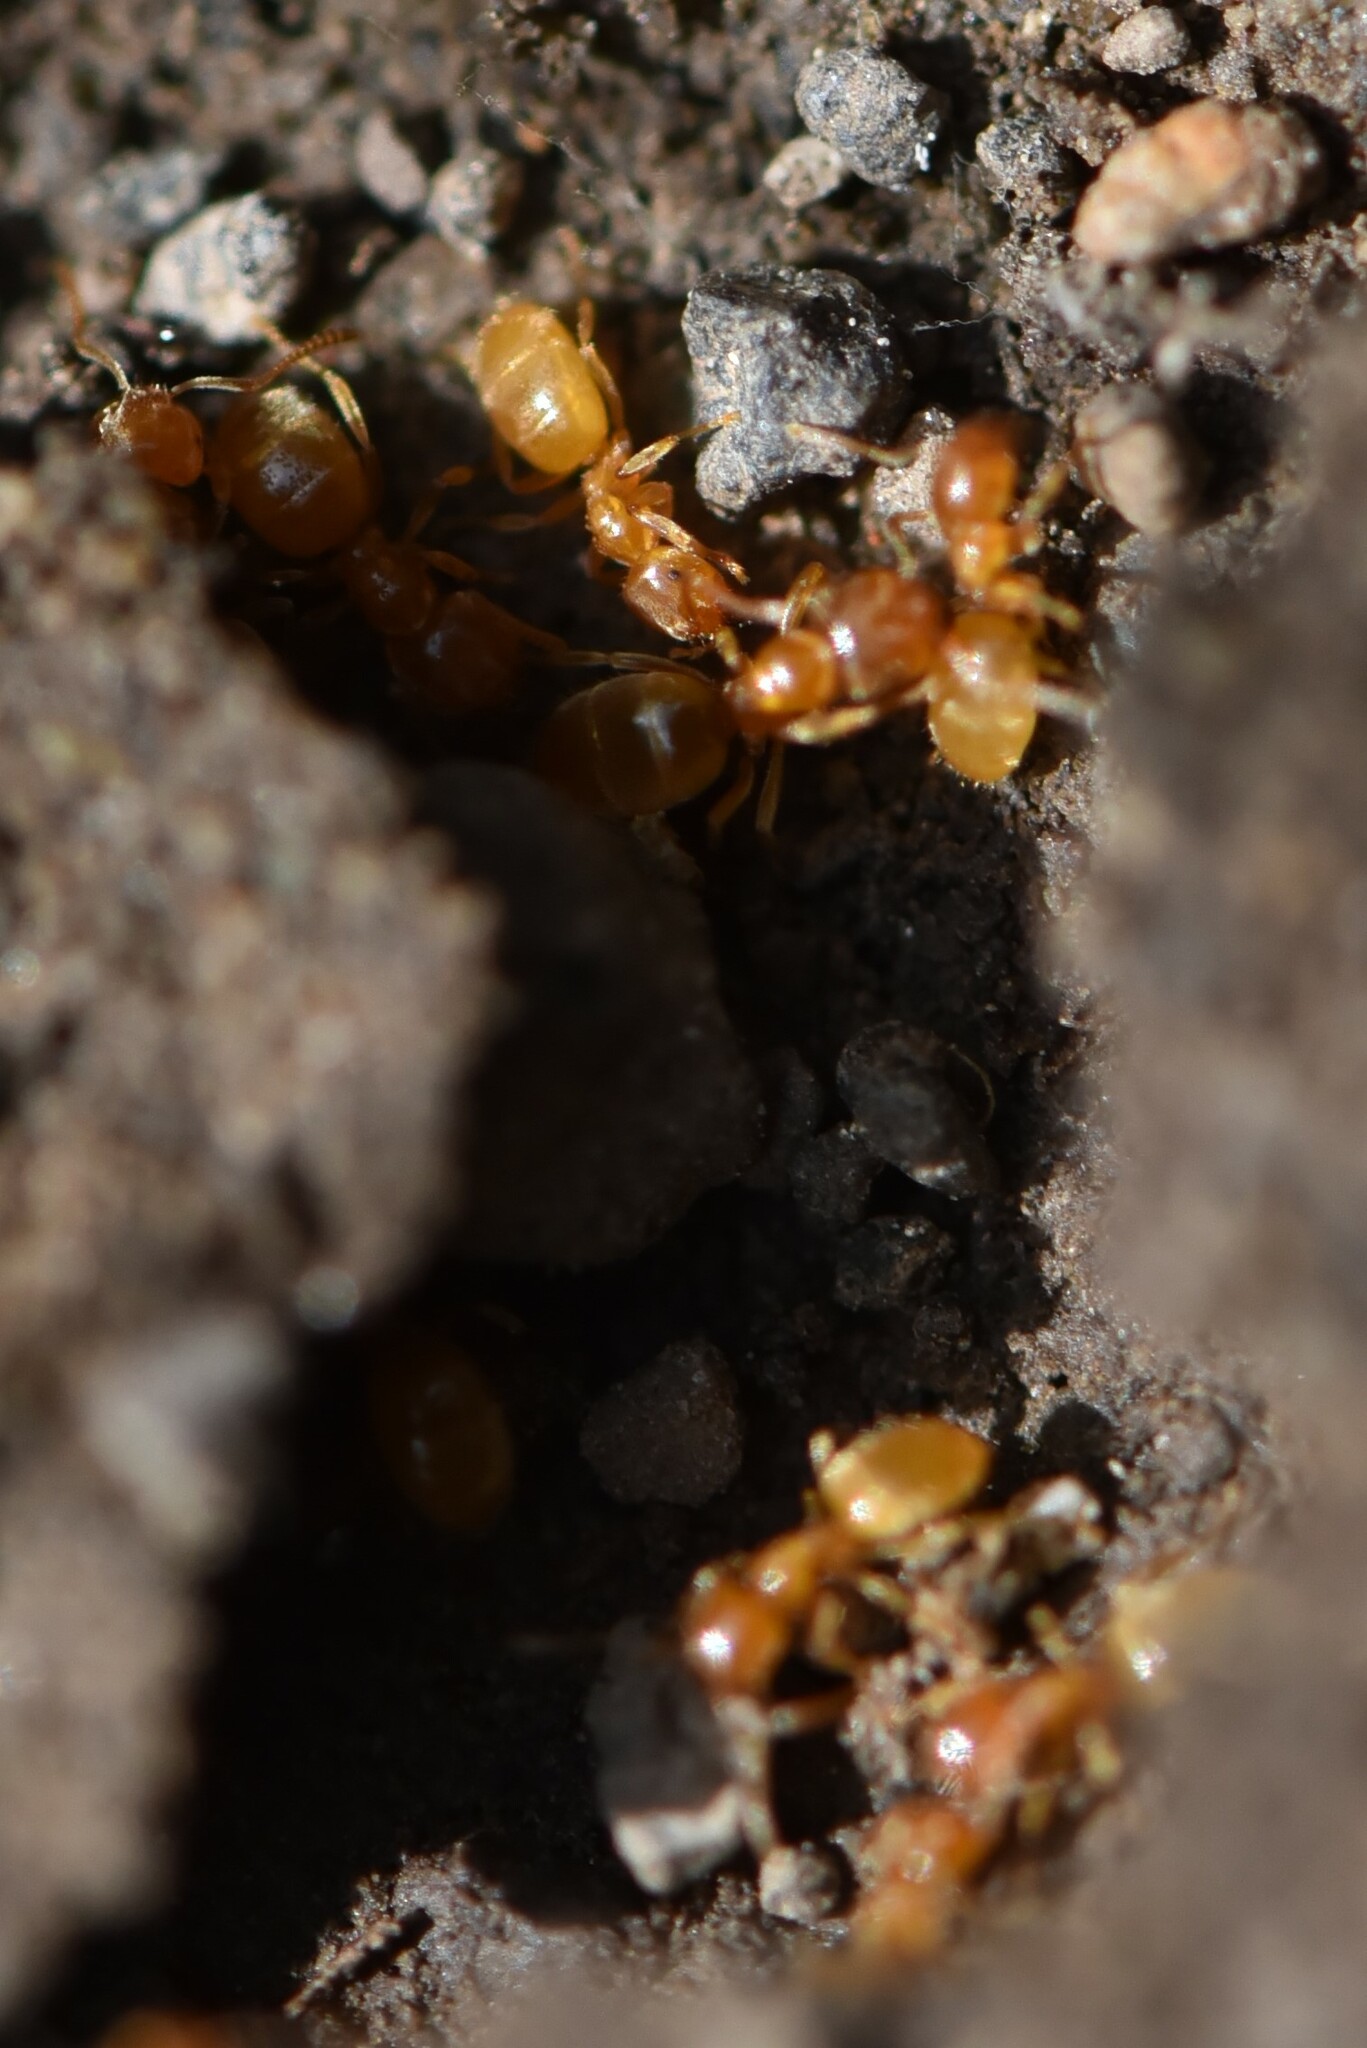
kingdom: Animalia
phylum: Arthropoda
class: Insecta
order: Hymenoptera
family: Formicidae
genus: Lasius
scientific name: Lasius
